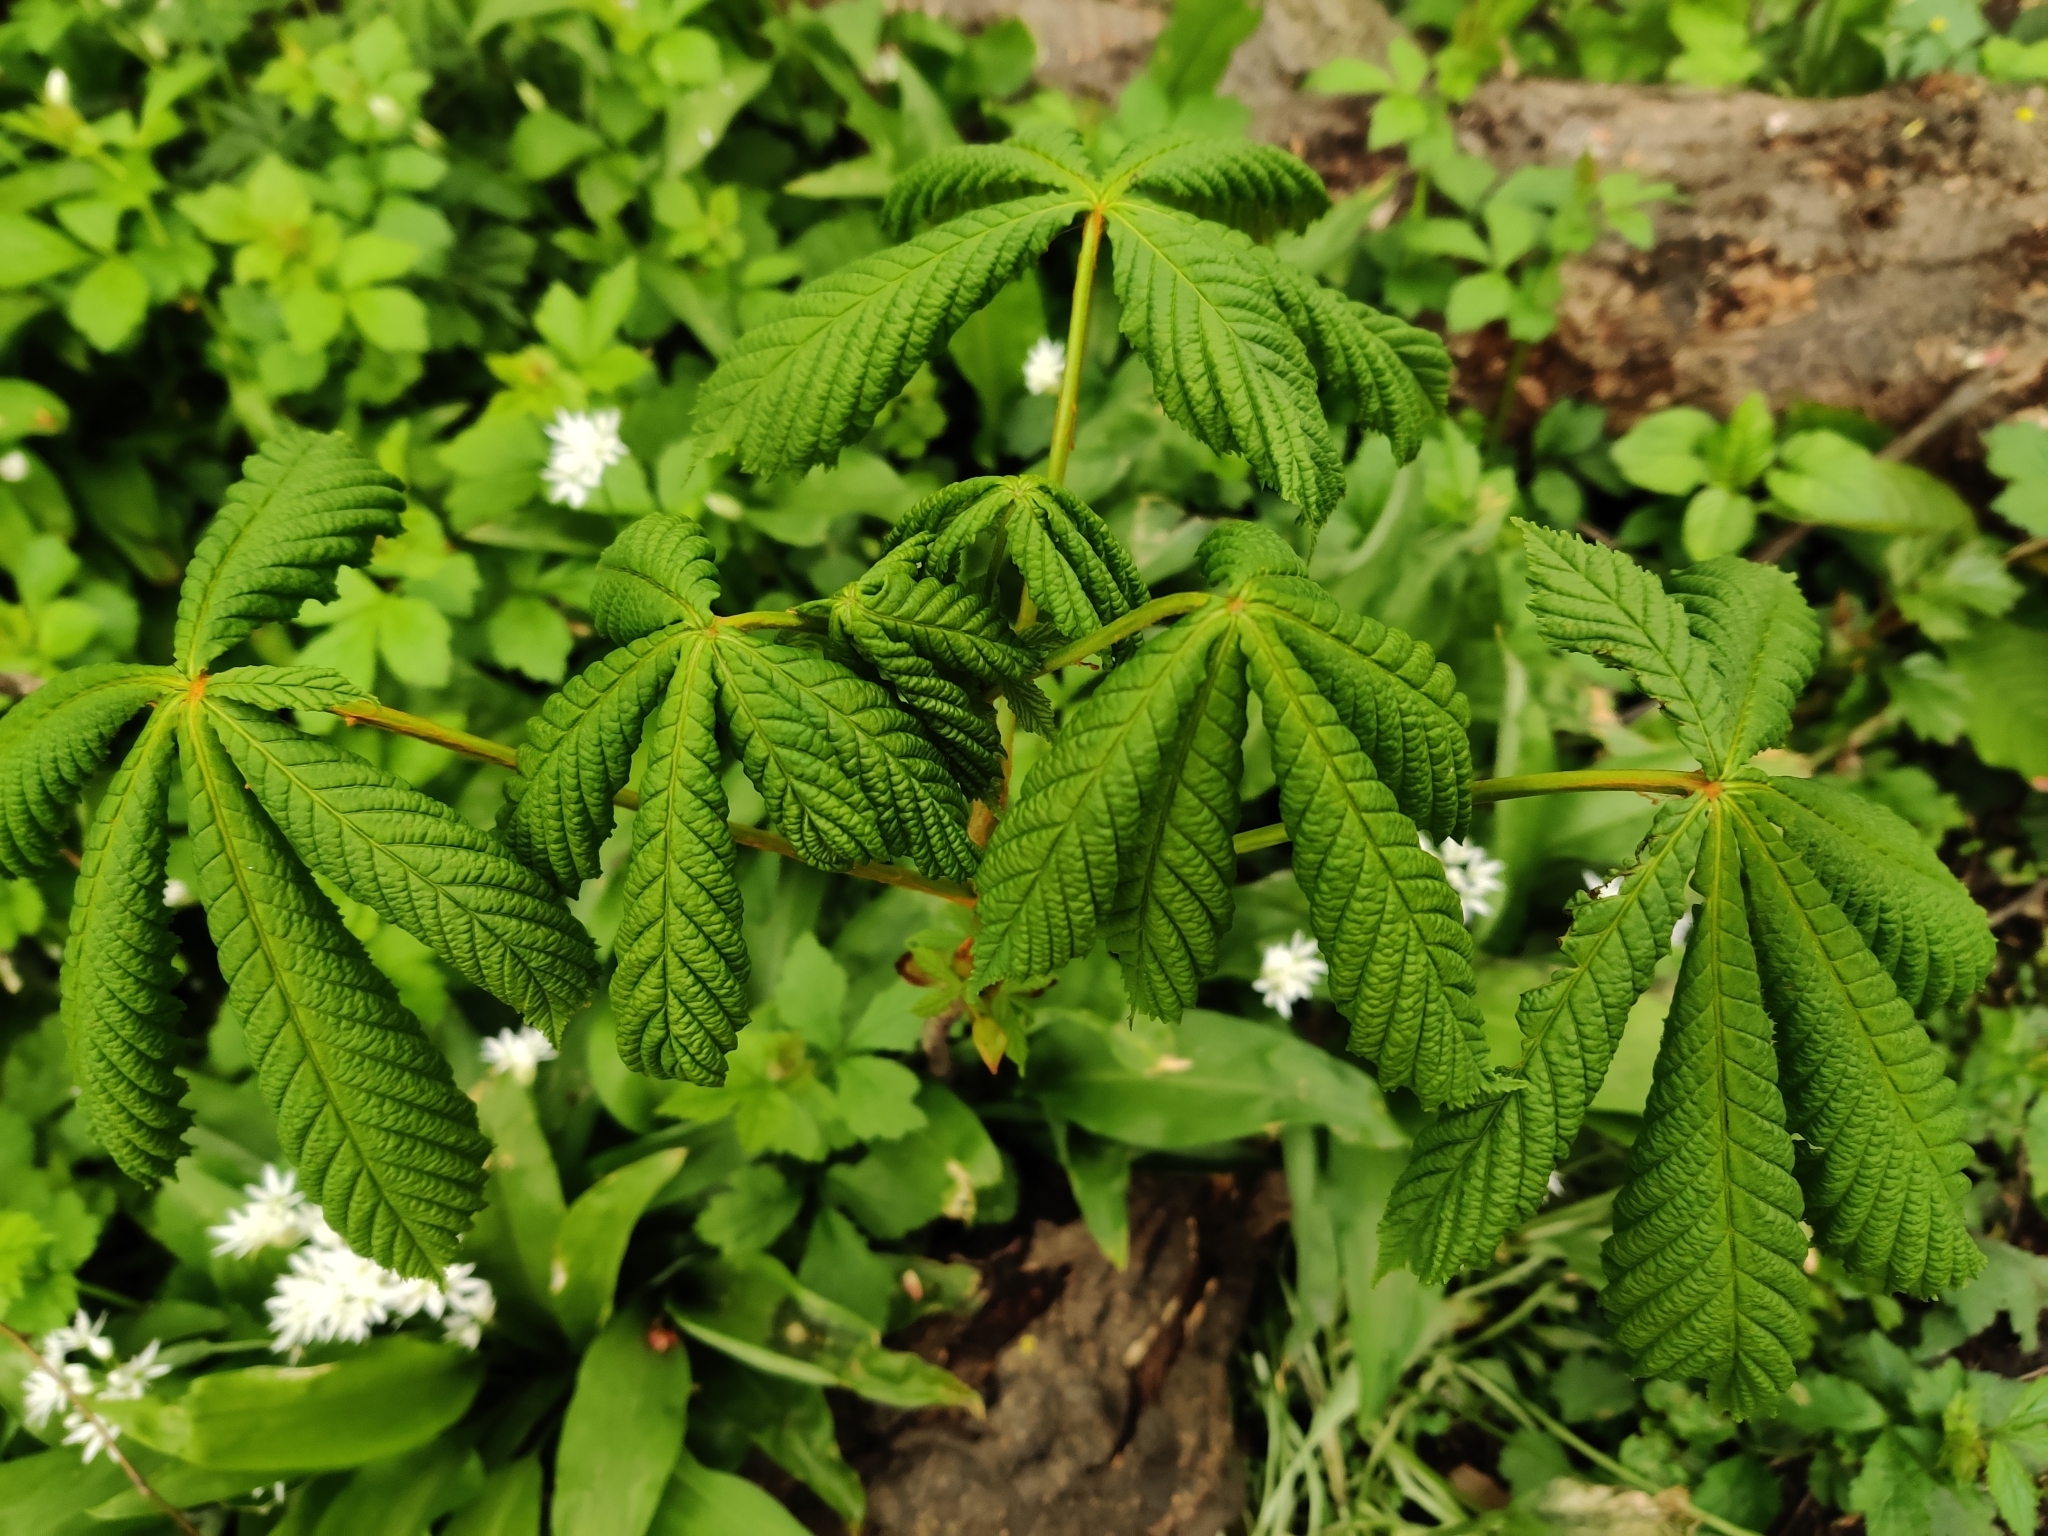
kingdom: Plantae
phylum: Tracheophyta
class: Magnoliopsida
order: Sapindales
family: Sapindaceae
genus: Aesculus
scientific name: Aesculus hippocastanum
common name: Horse-chestnut
